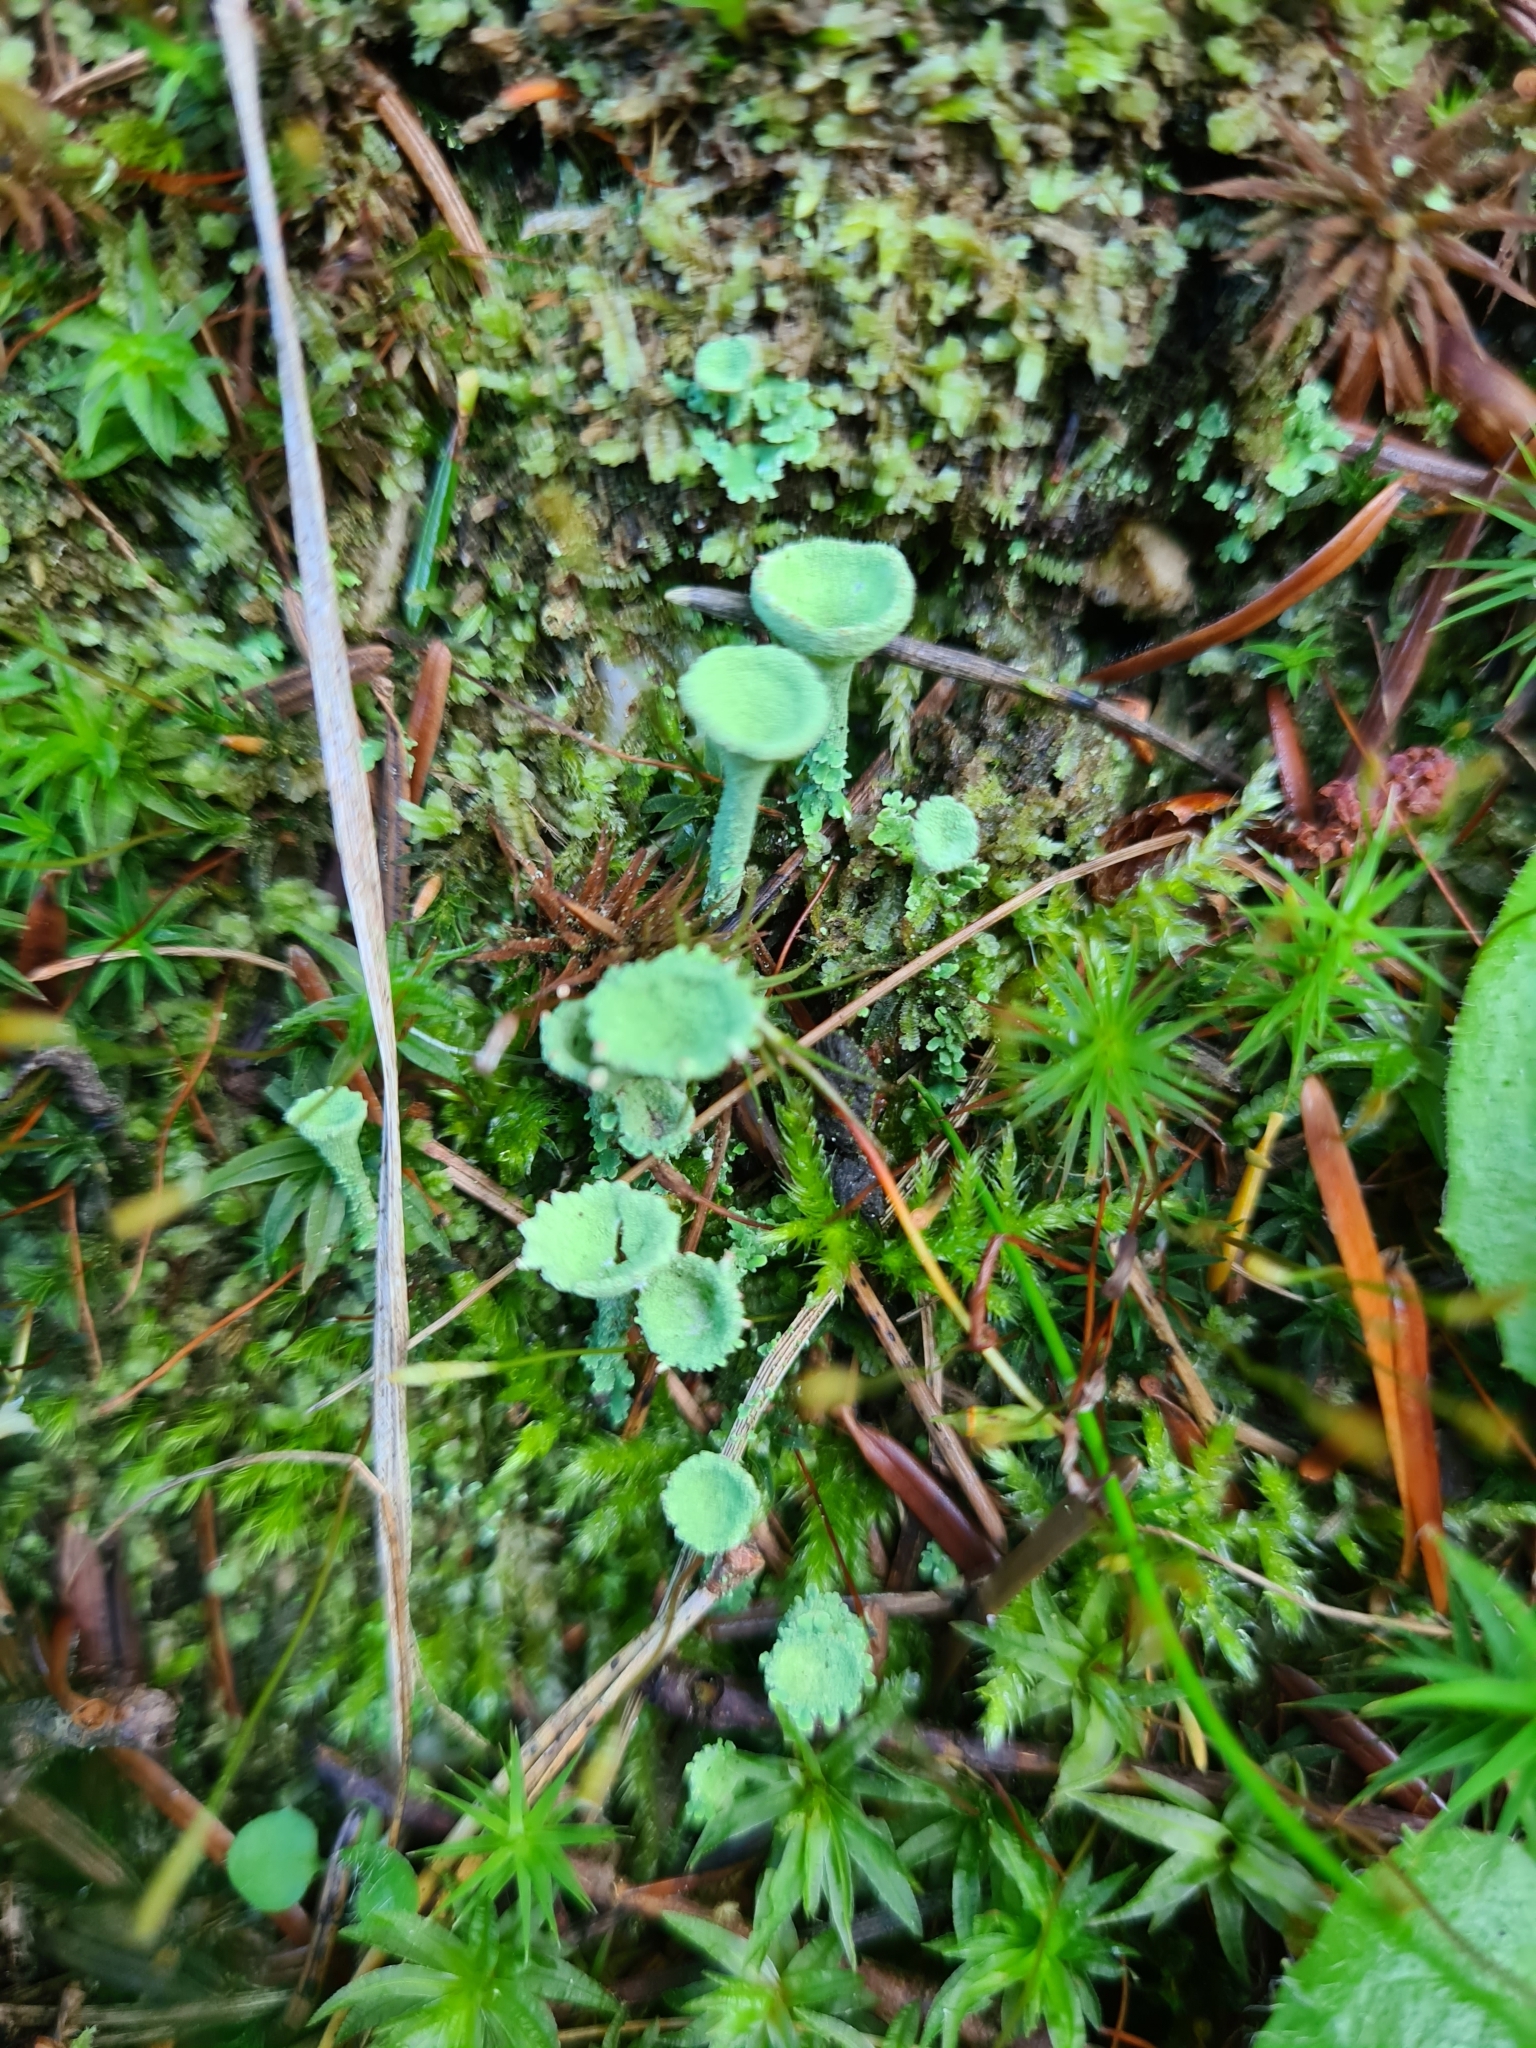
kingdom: Fungi
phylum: Ascomycota
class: Lecanoromycetes
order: Lecanorales
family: Cladoniaceae
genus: Cladonia
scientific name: Cladonia fimbriata
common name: Powdered trumpet lichen
